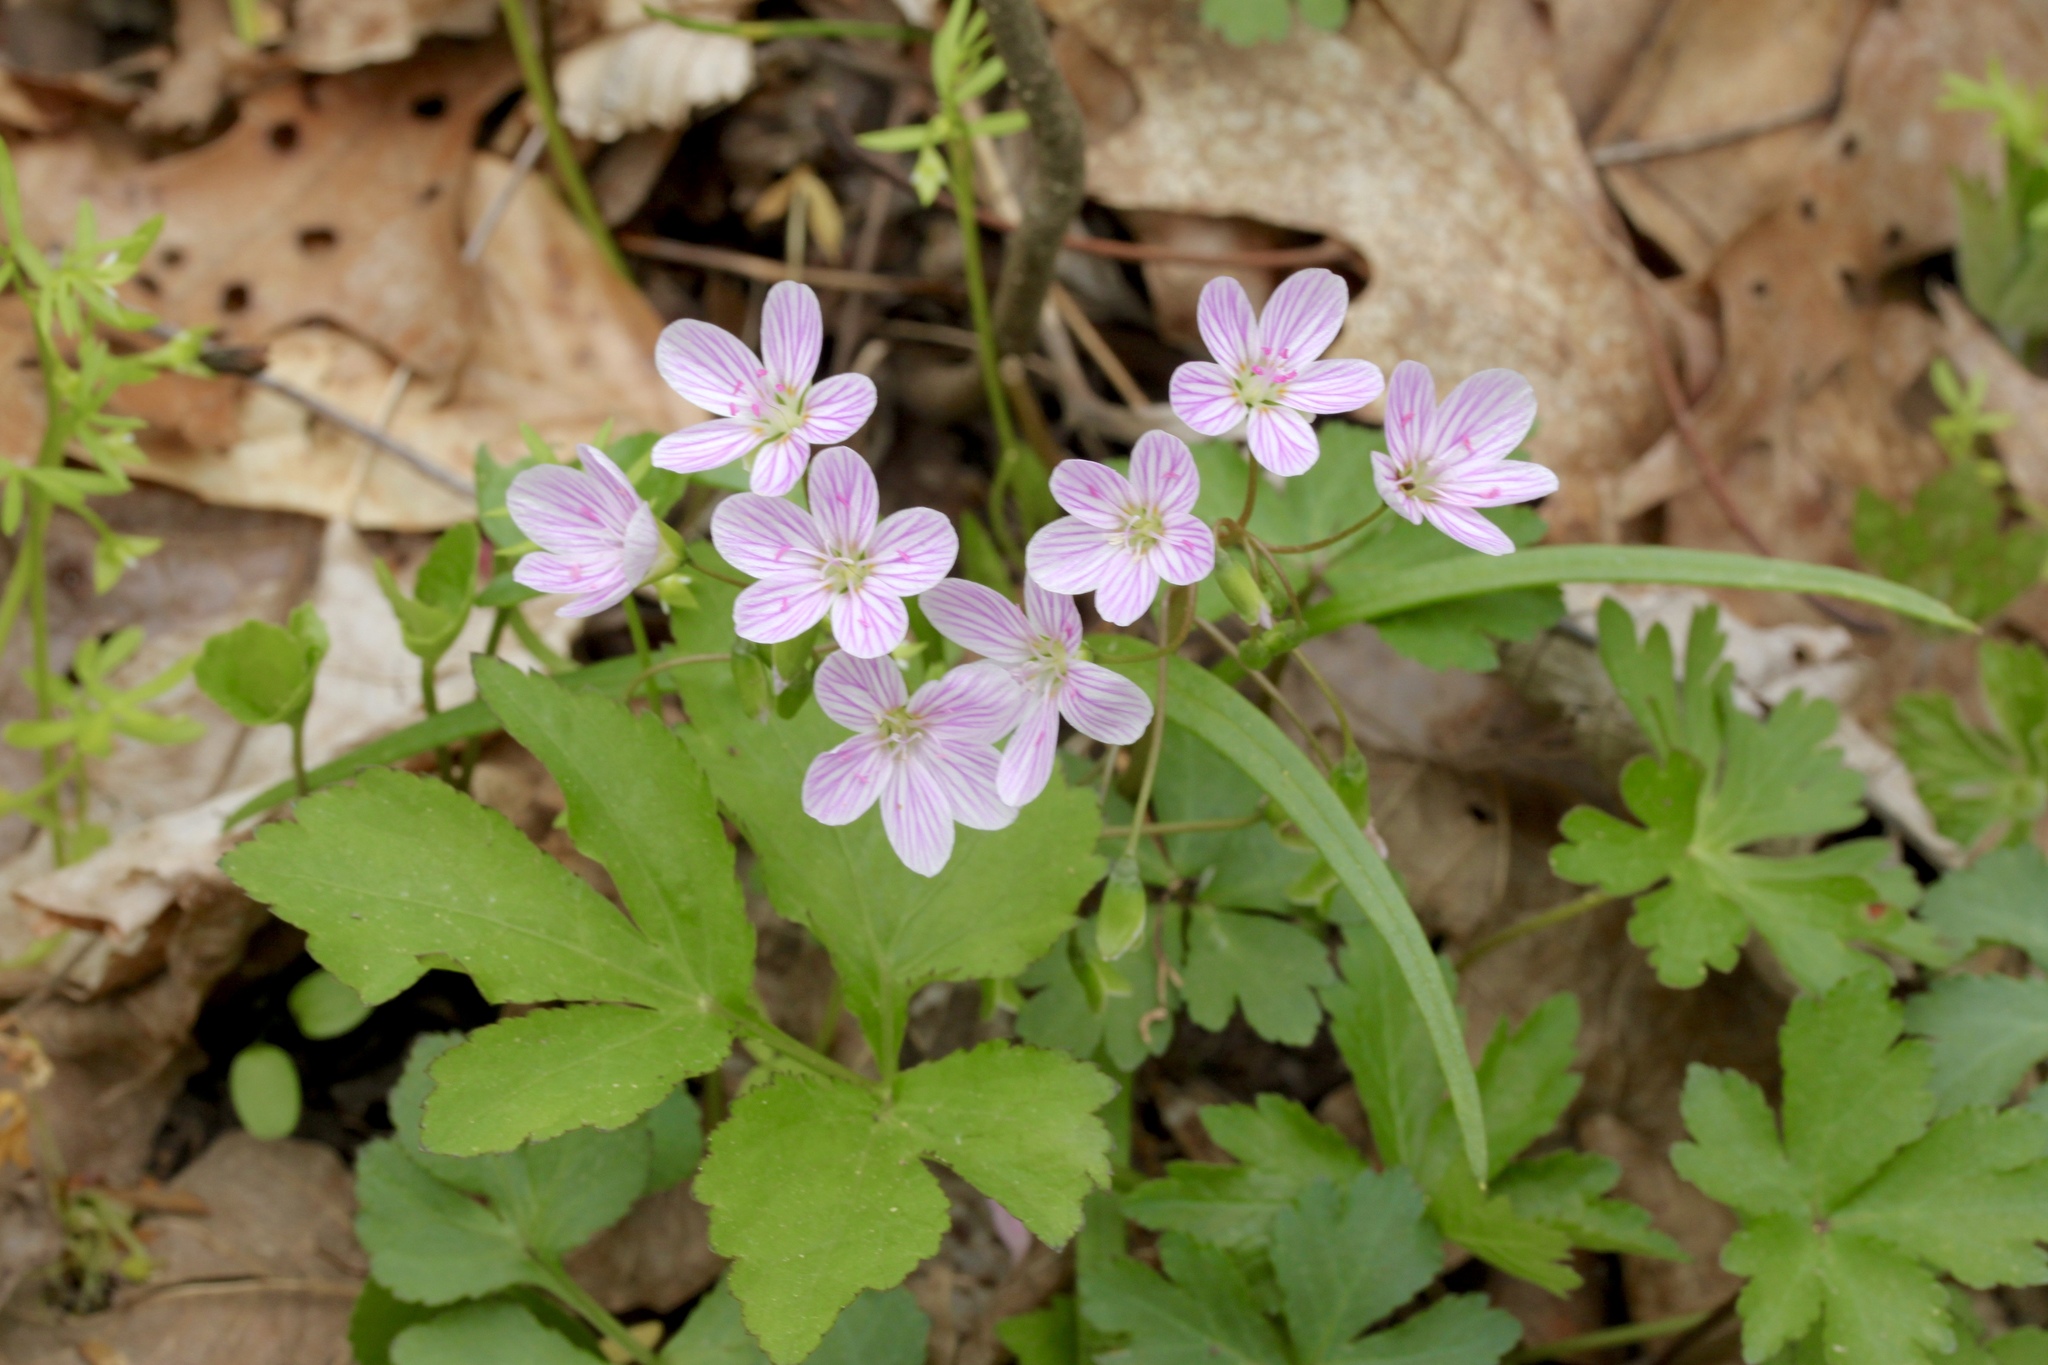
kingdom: Plantae
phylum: Tracheophyta
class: Magnoliopsida
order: Caryophyllales
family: Montiaceae
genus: Claytonia
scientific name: Claytonia virginica
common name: Virginia springbeauty
